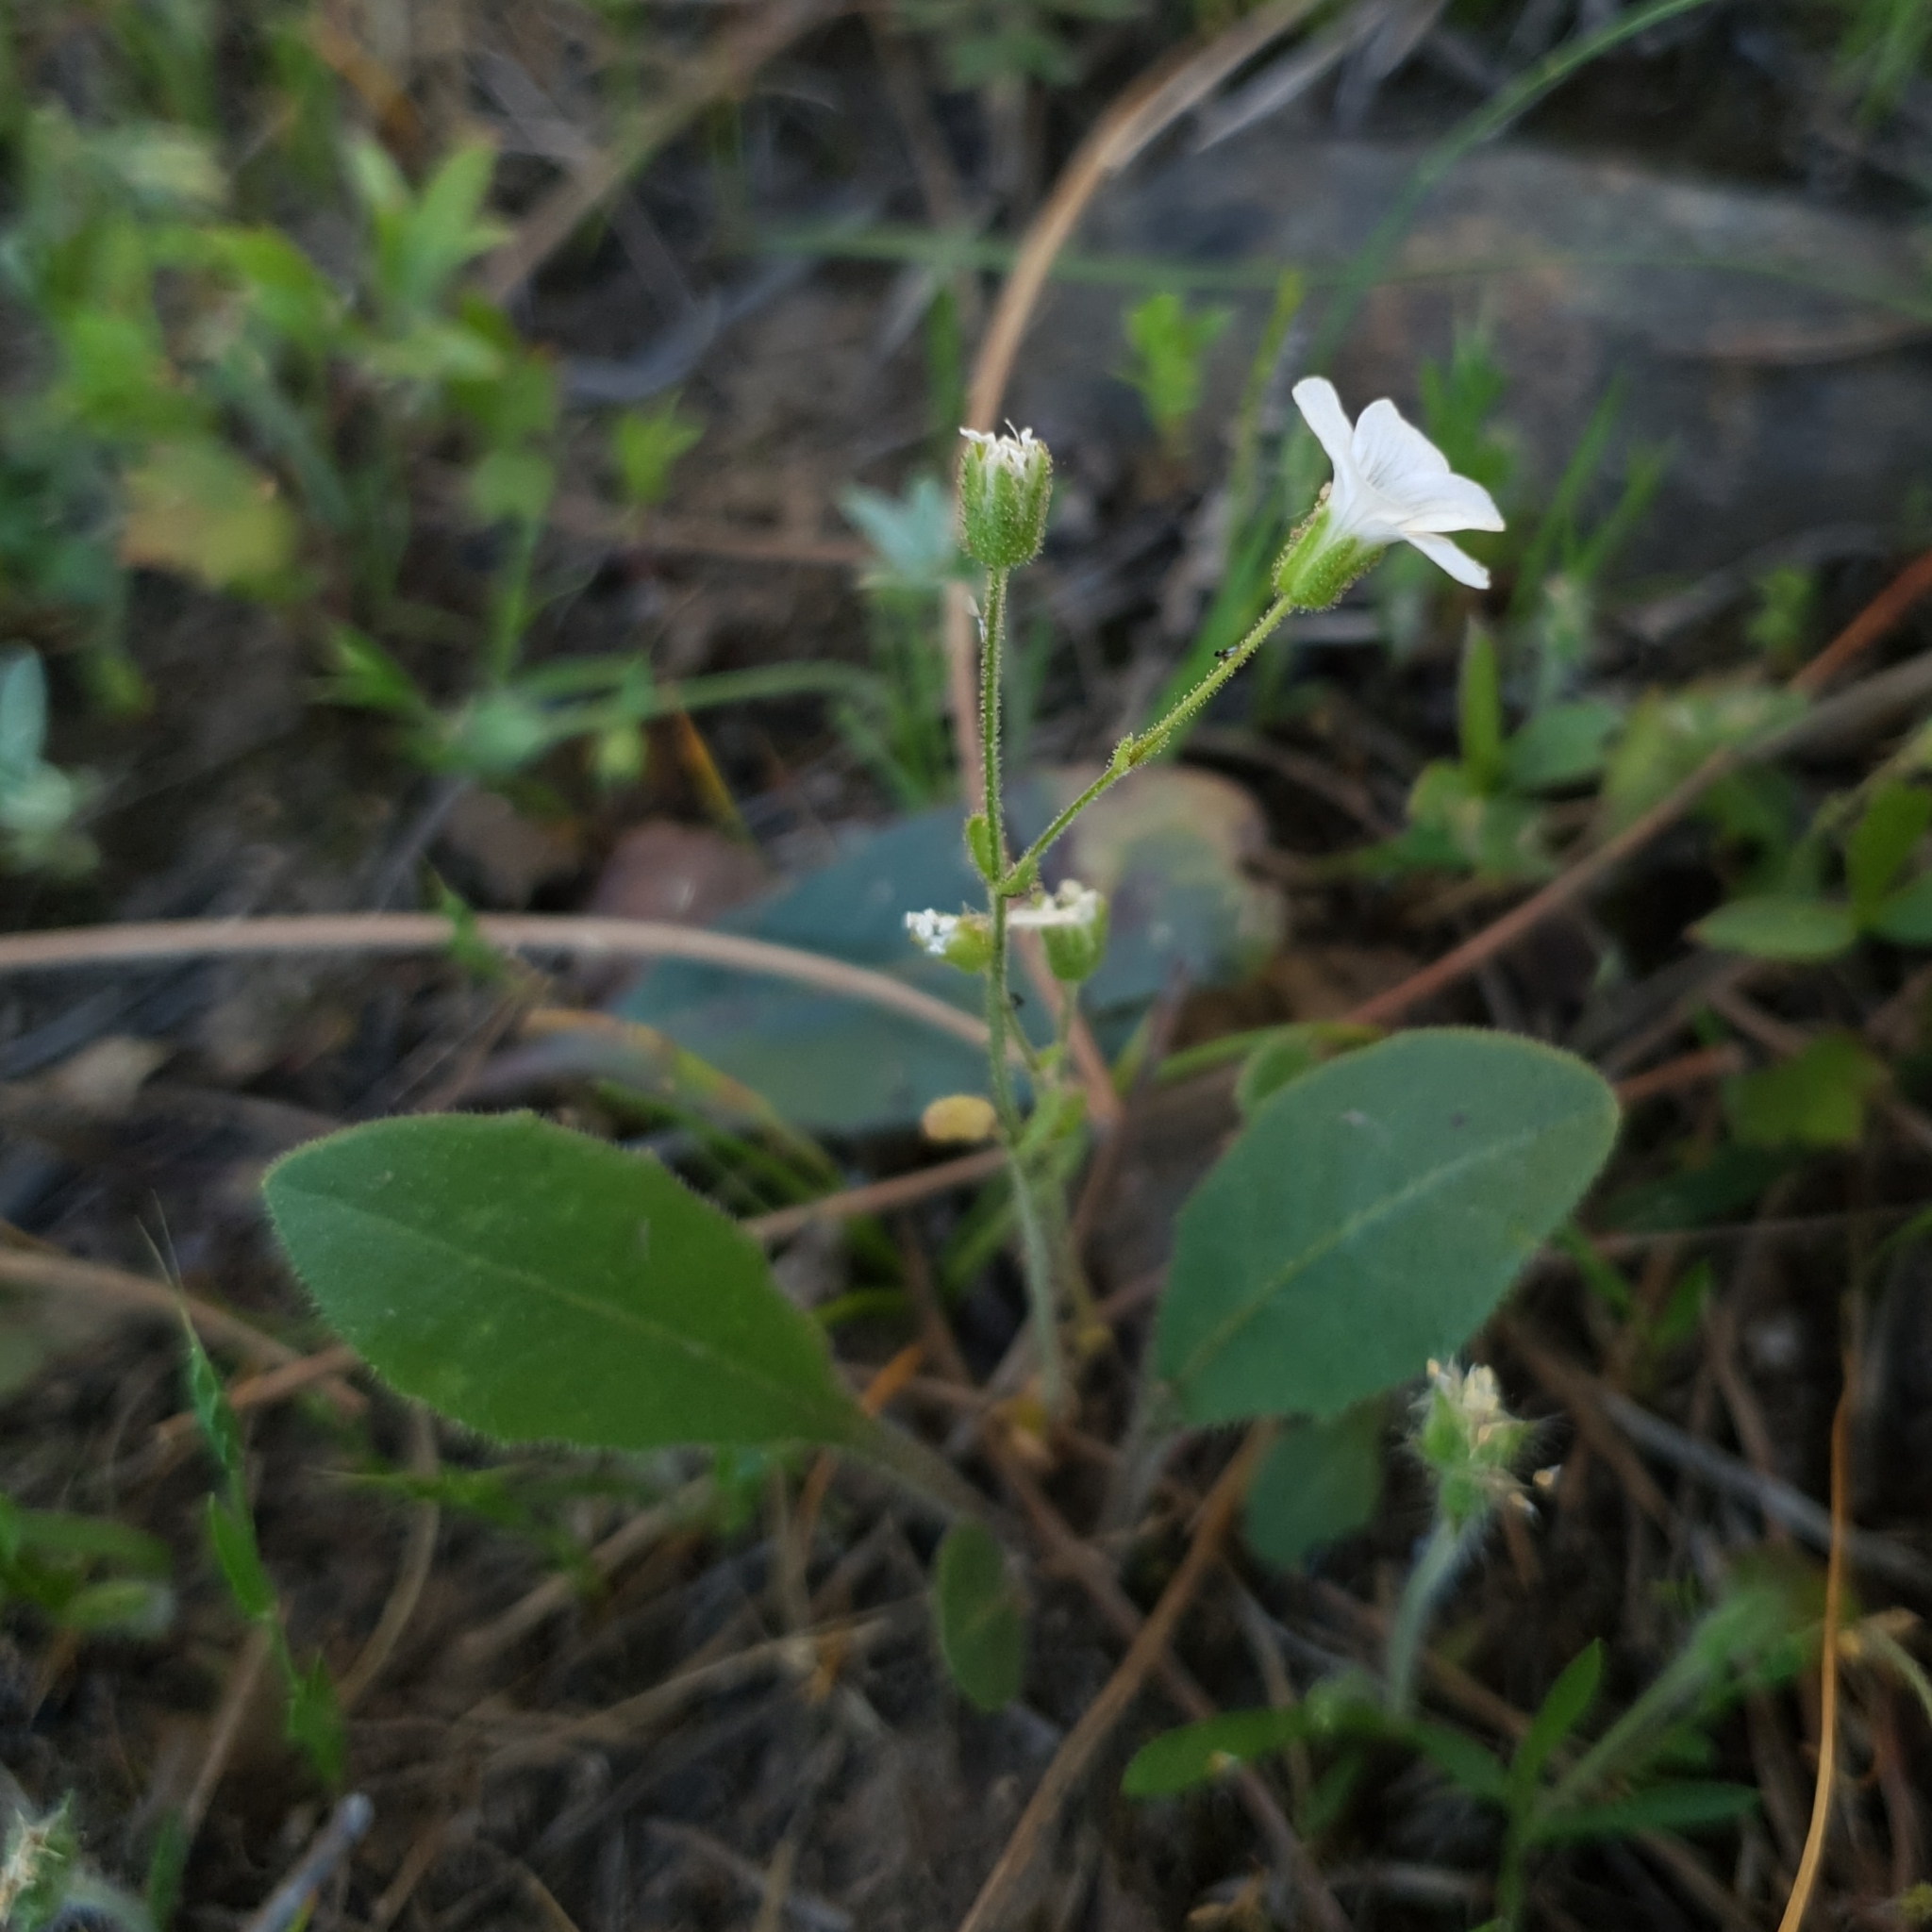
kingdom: Plantae
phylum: Tracheophyta
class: Magnoliopsida
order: Caryophyllales
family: Caryophyllaceae
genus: Arenaria
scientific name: Arenaria cerastioides
